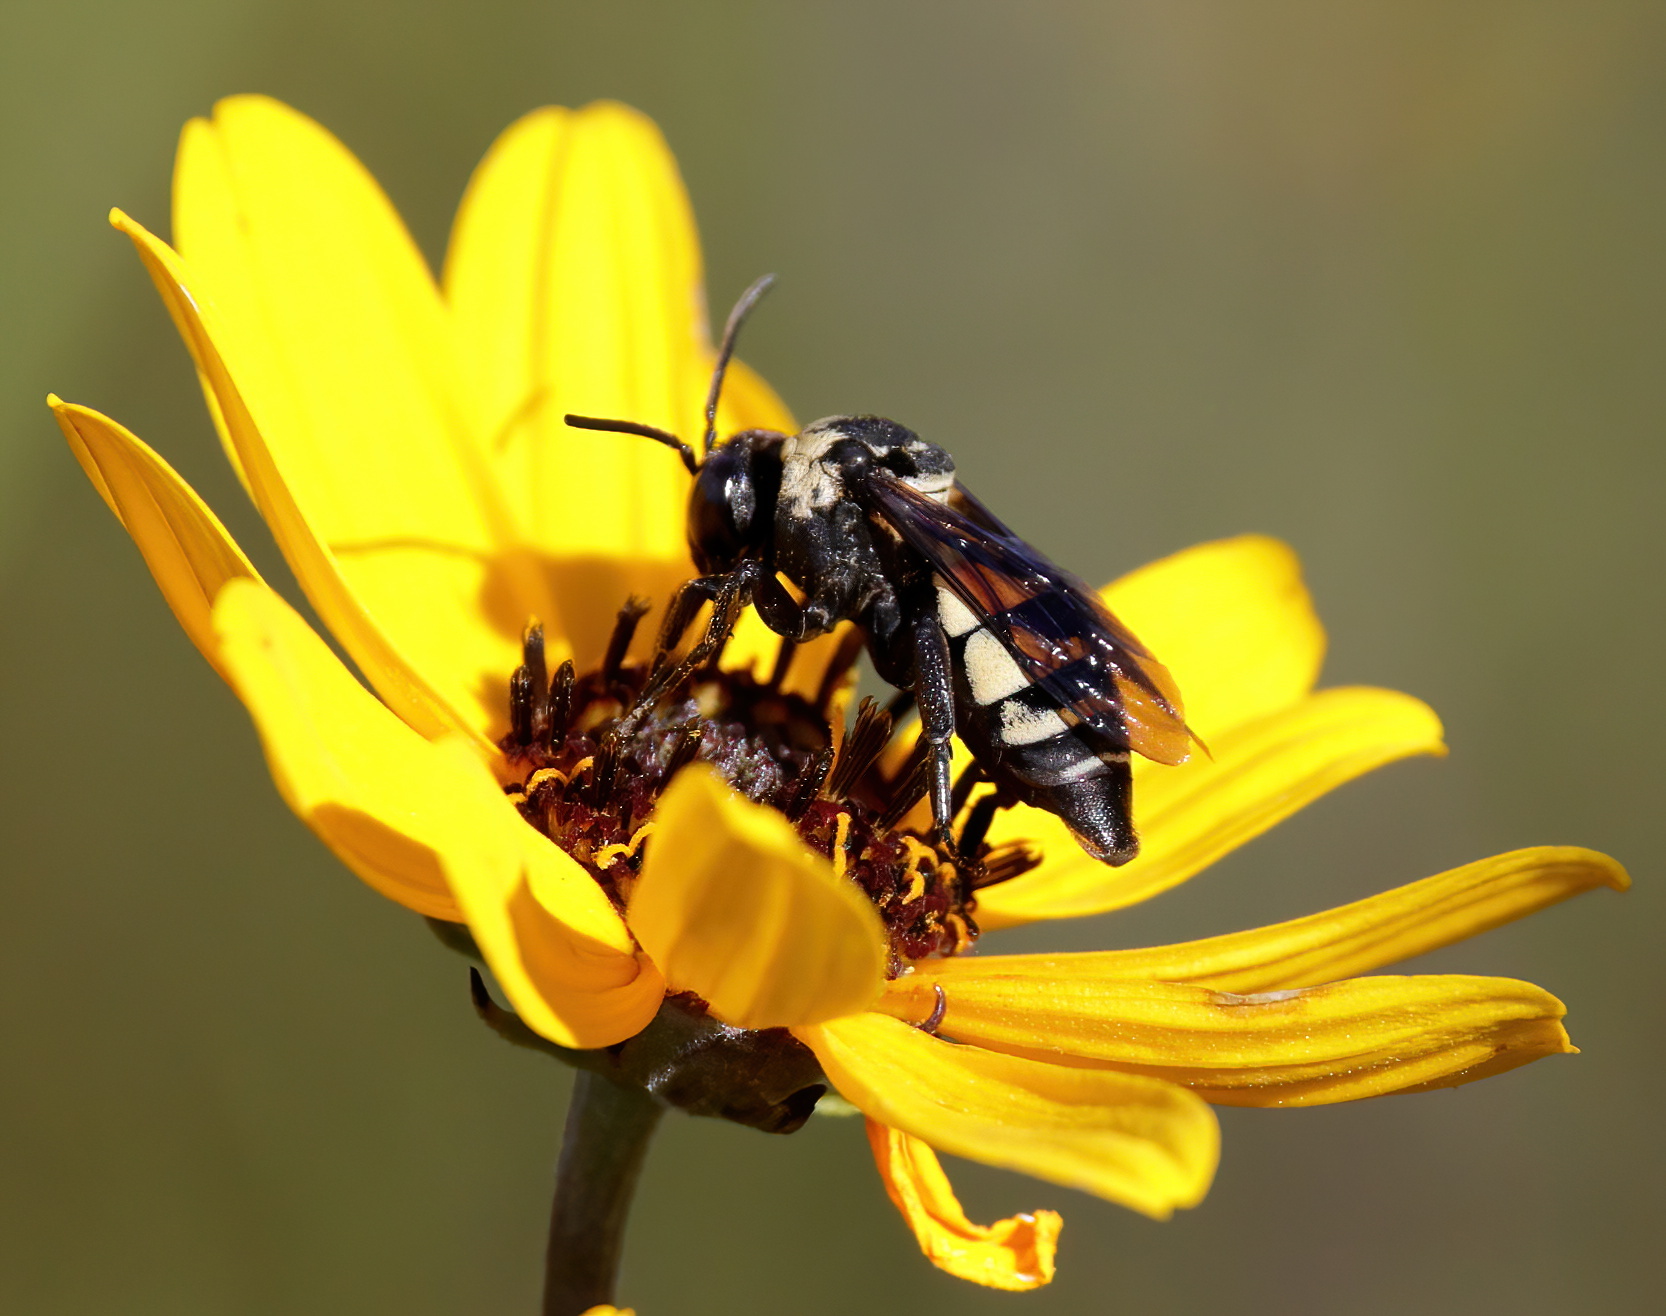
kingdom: Animalia
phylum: Arthropoda
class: Insecta
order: Hymenoptera
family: Apidae
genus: Triepeolus
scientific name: Triepeolus concavus
